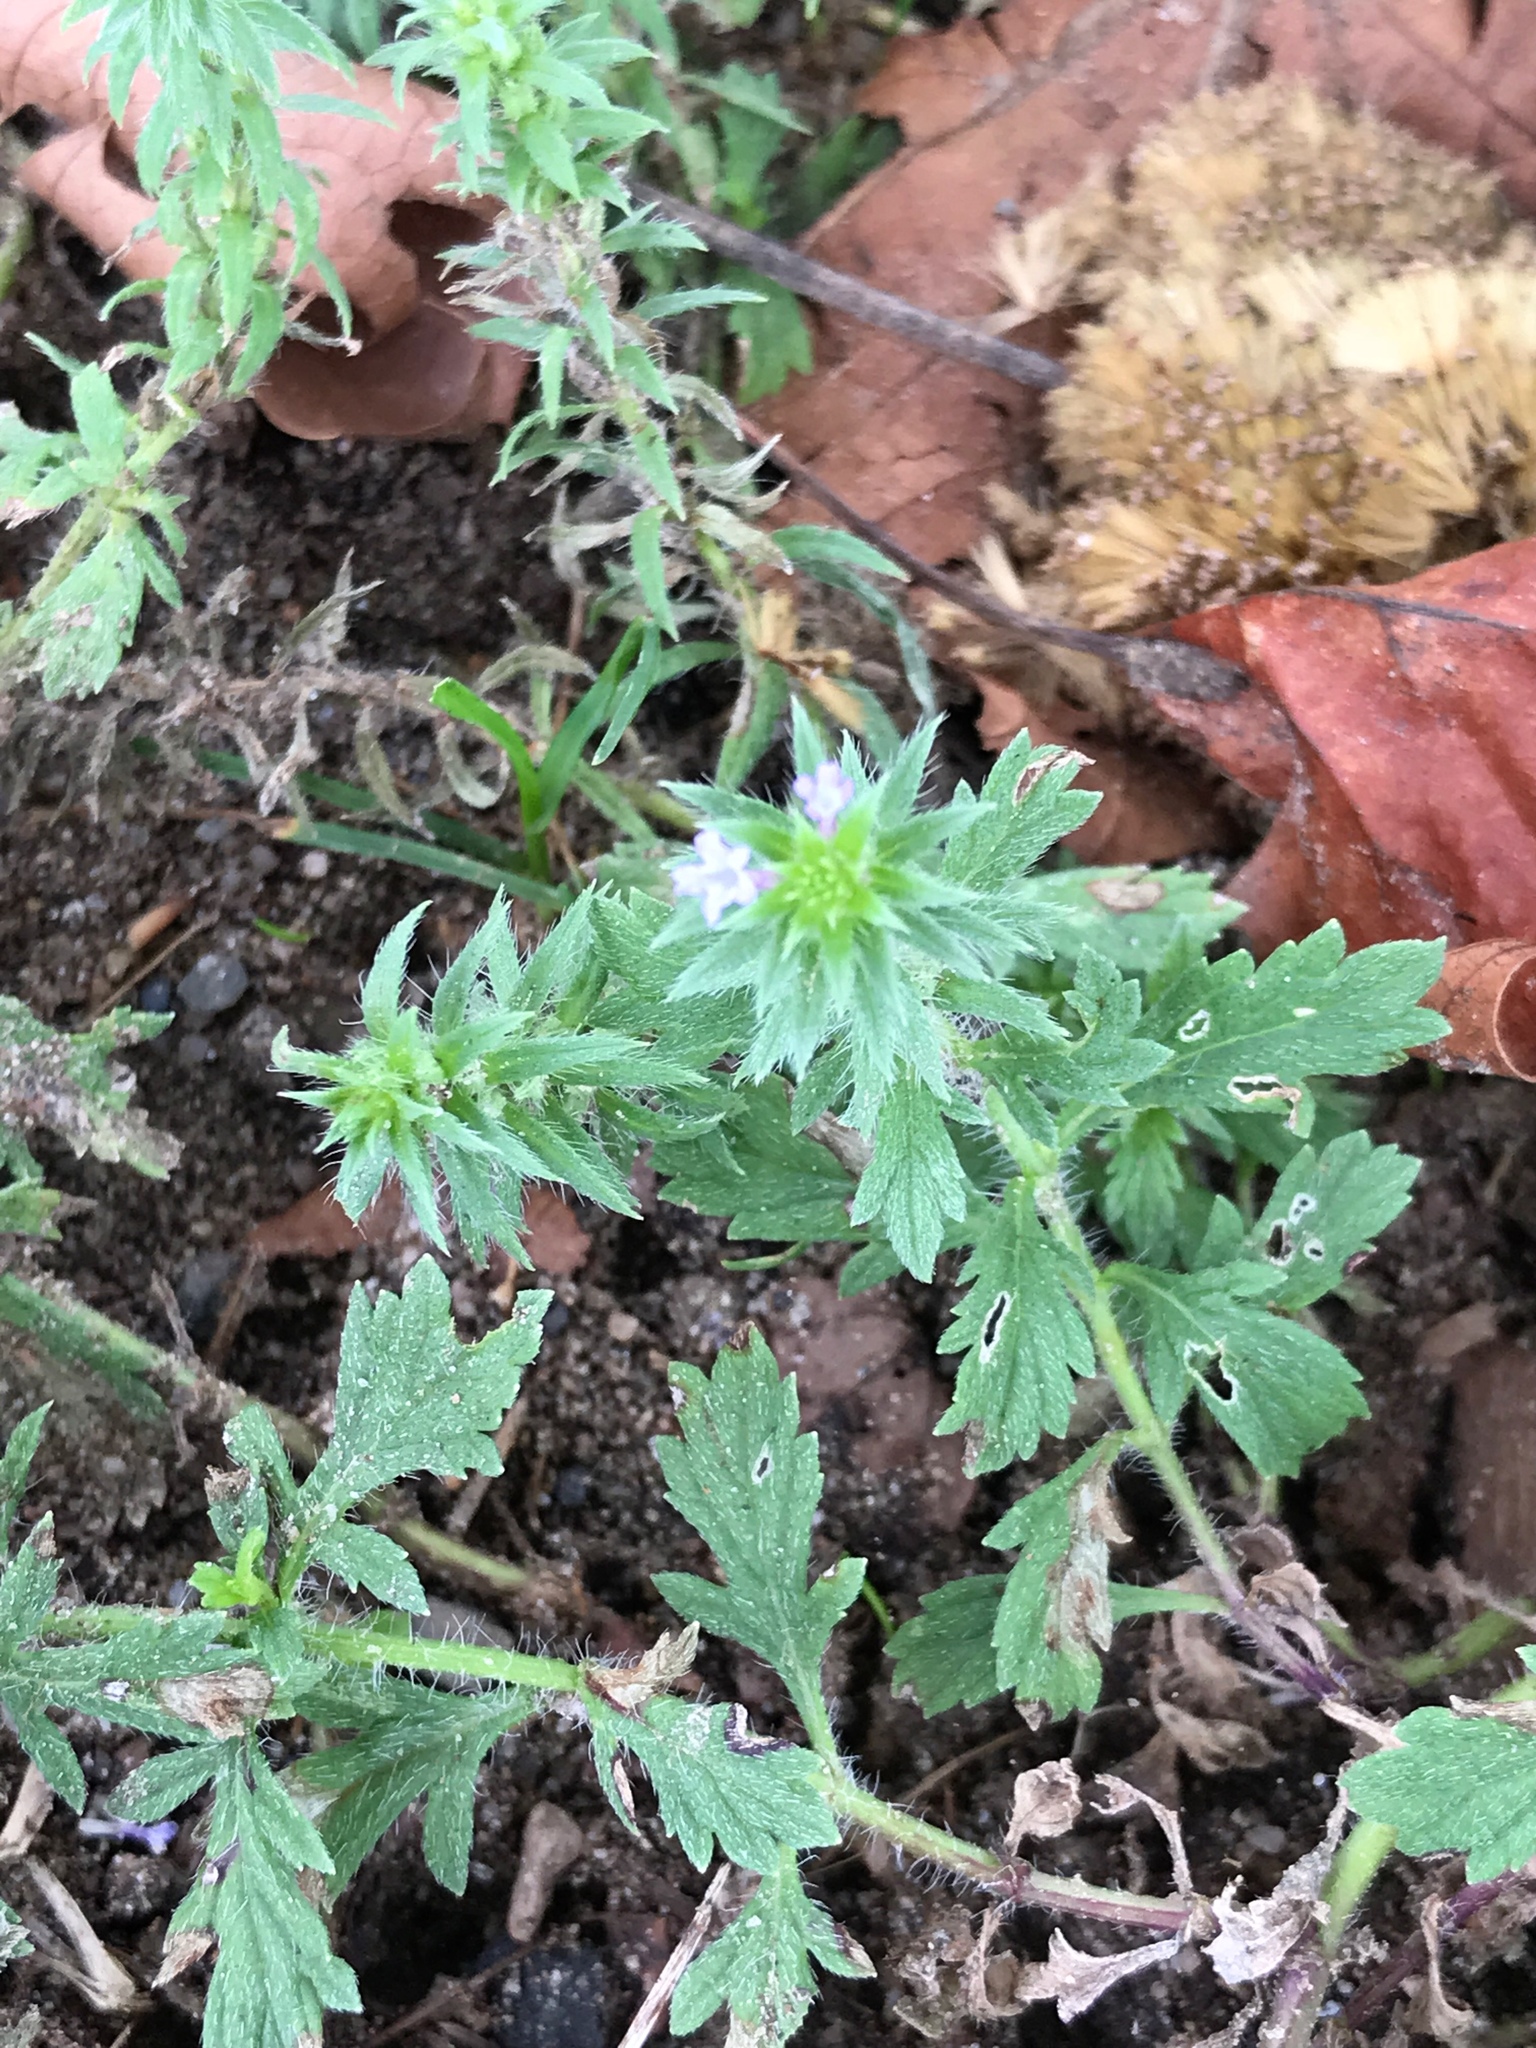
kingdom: Plantae
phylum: Tracheophyta
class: Magnoliopsida
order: Lamiales
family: Verbenaceae
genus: Verbena
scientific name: Verbena bracteata
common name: Bracted vervain
